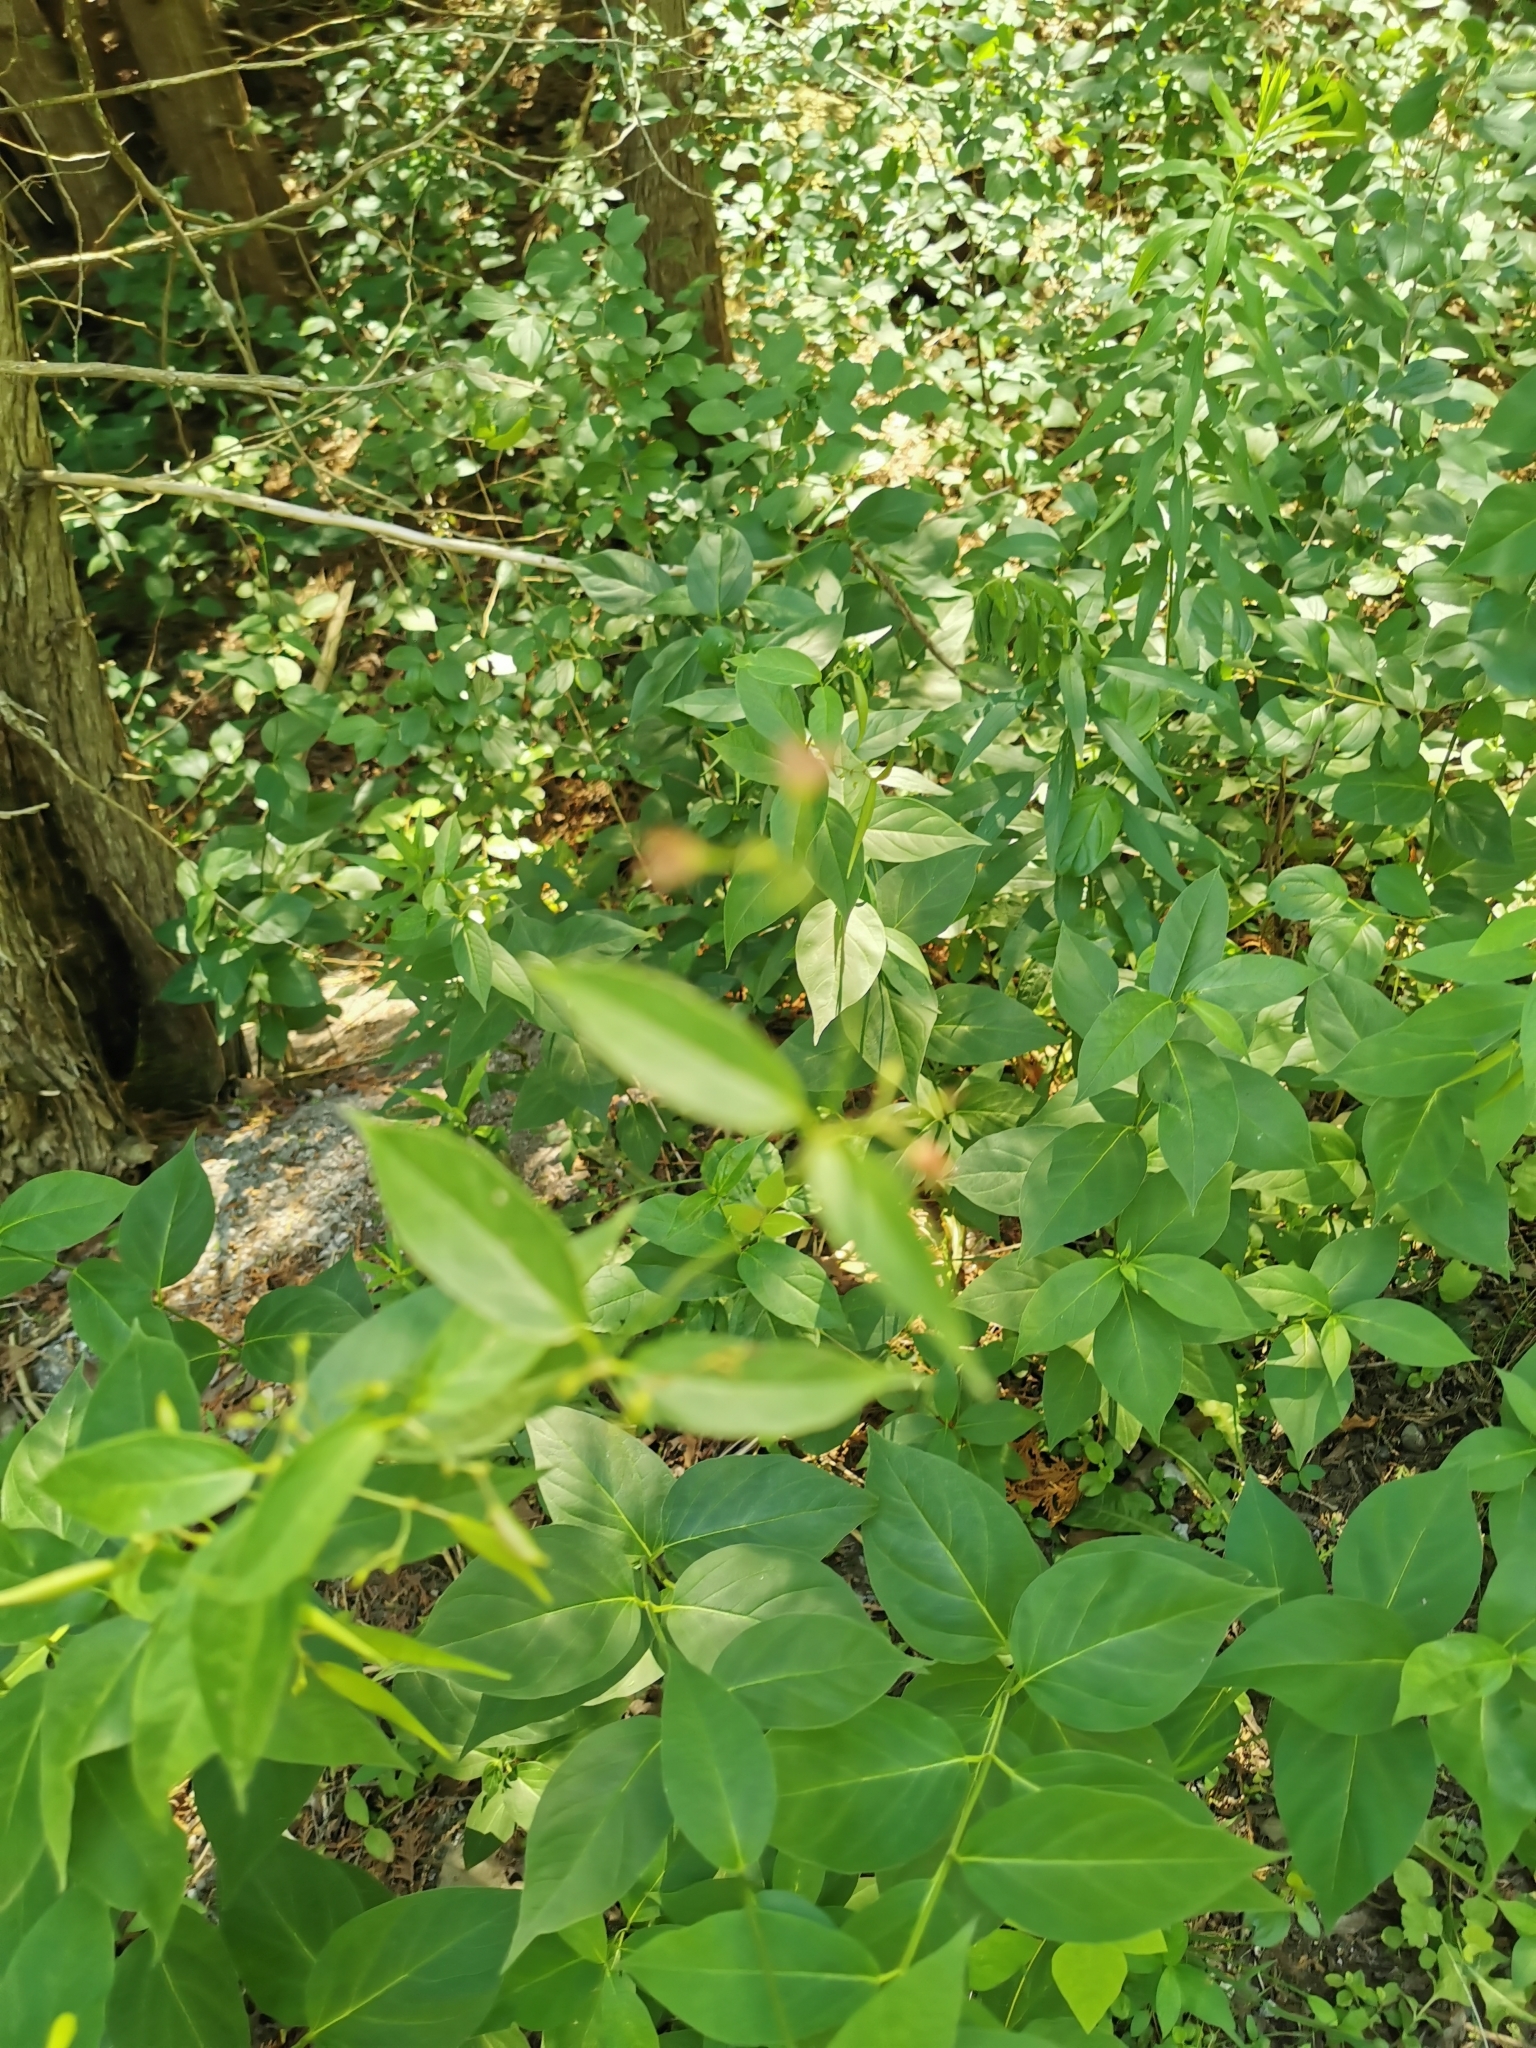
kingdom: Plantae
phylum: Tracheophyta
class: Magnoliopsida
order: Gentianales
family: Apocynaceae
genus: Vincetoxicum
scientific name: Vincetoxicum rossicum
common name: Dog-strangling vine
